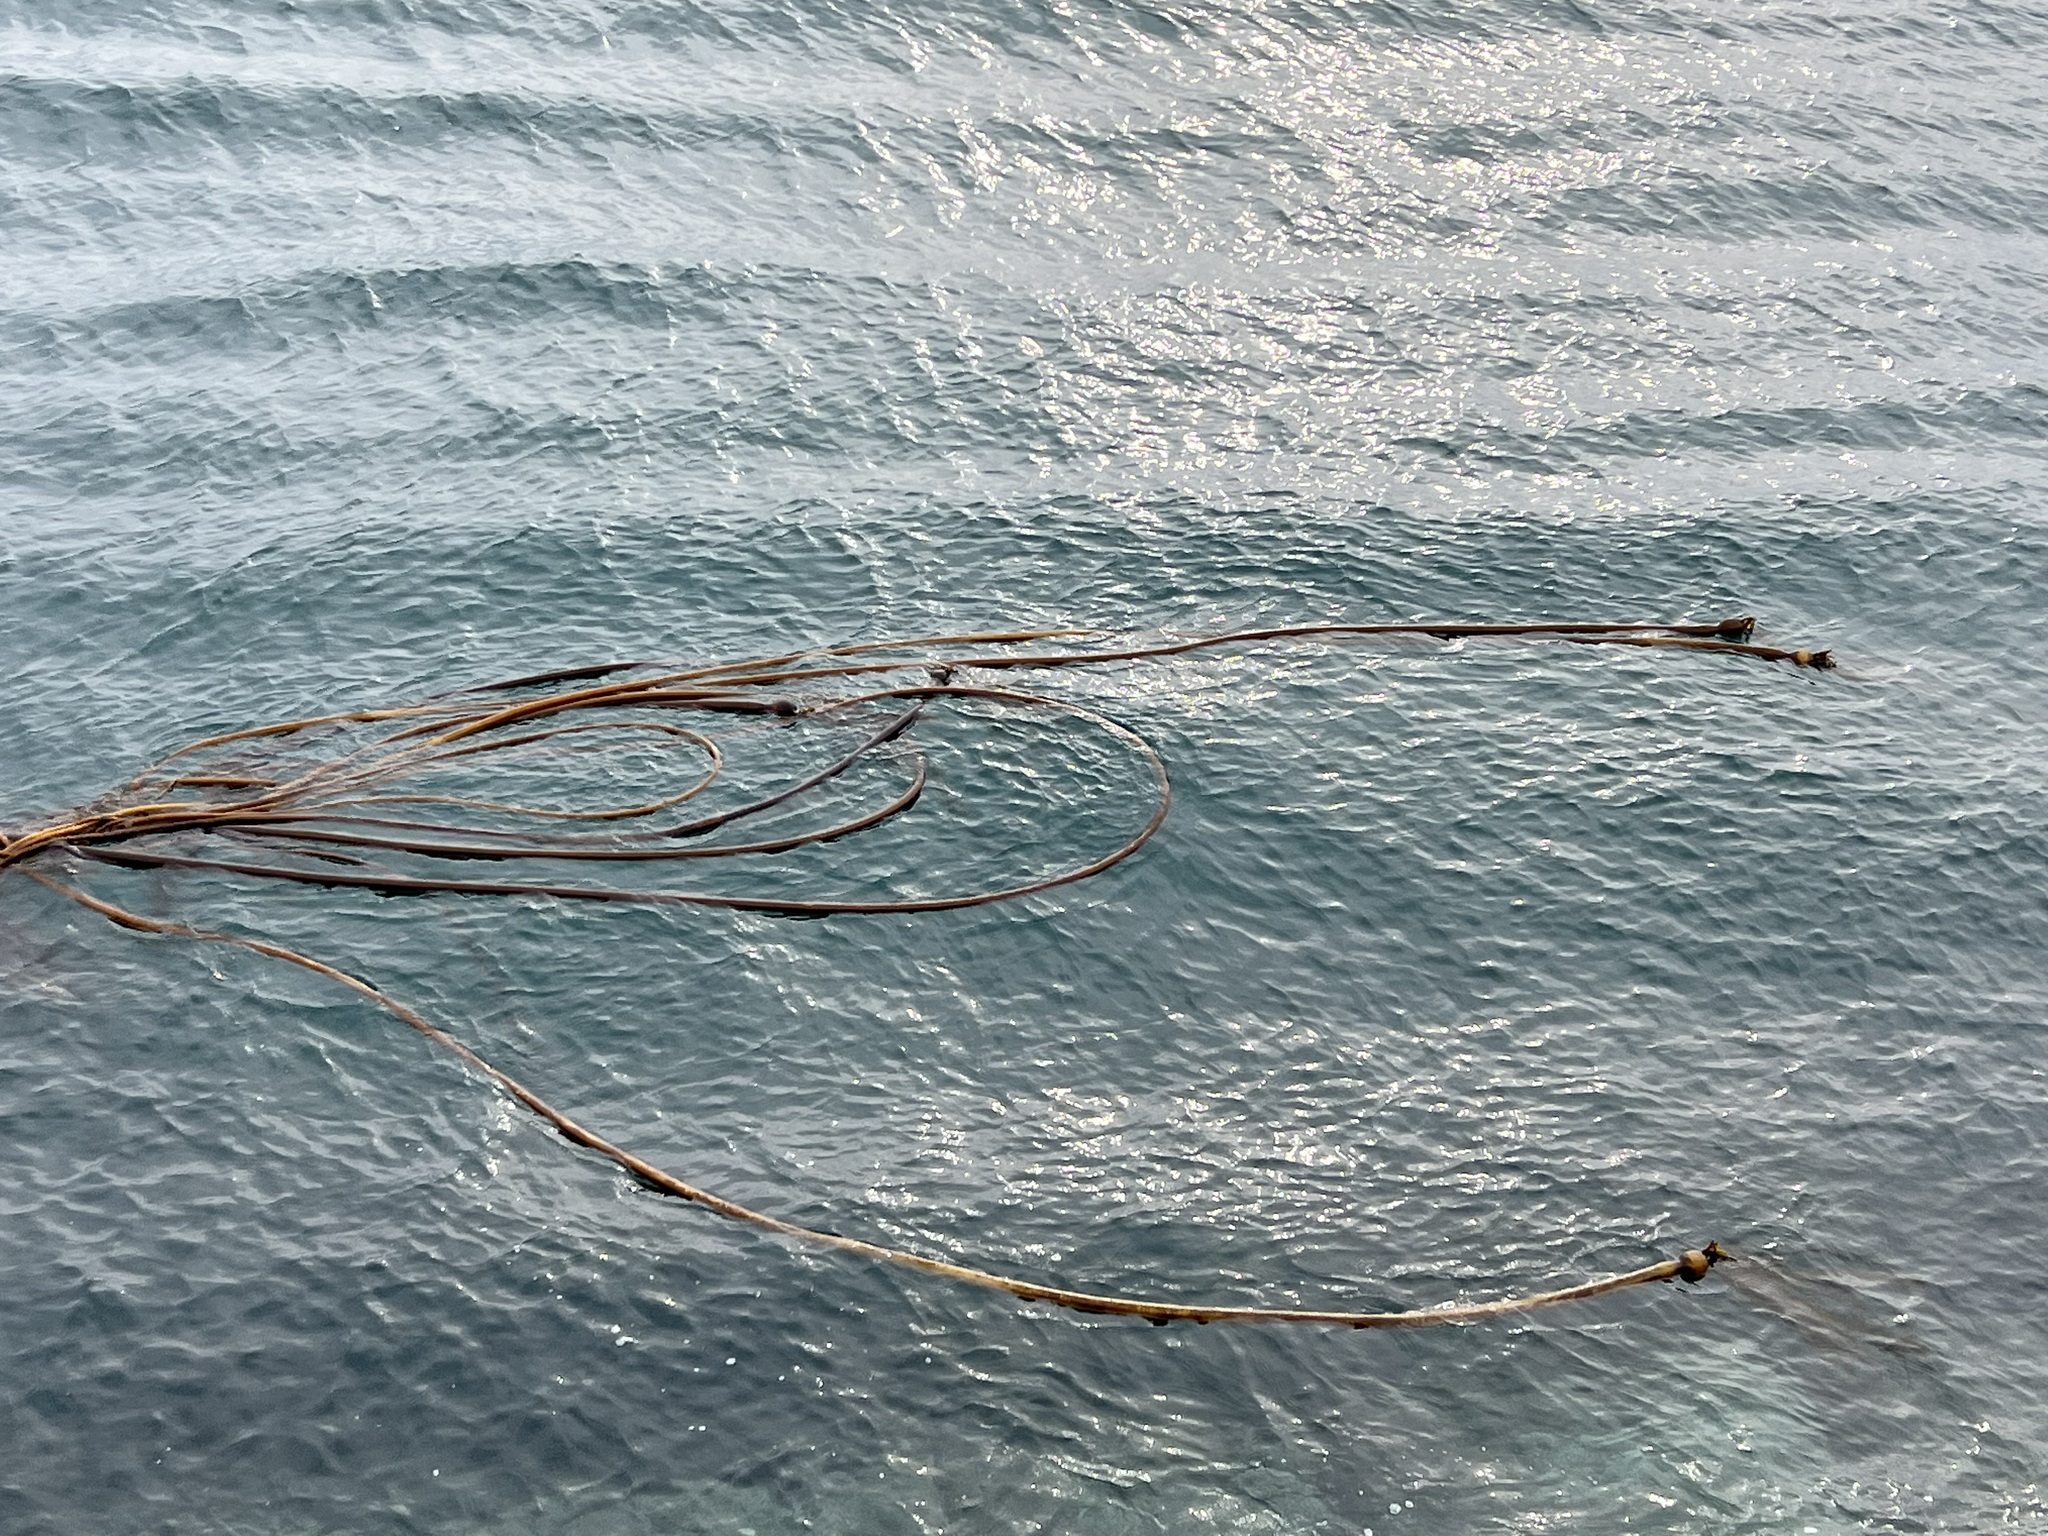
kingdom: Chromista
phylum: Ochrophyta
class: Phaeophyceae
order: Laminariales
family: Laminariaceae
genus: Nereocystis
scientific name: Nereocystis luetkeana
